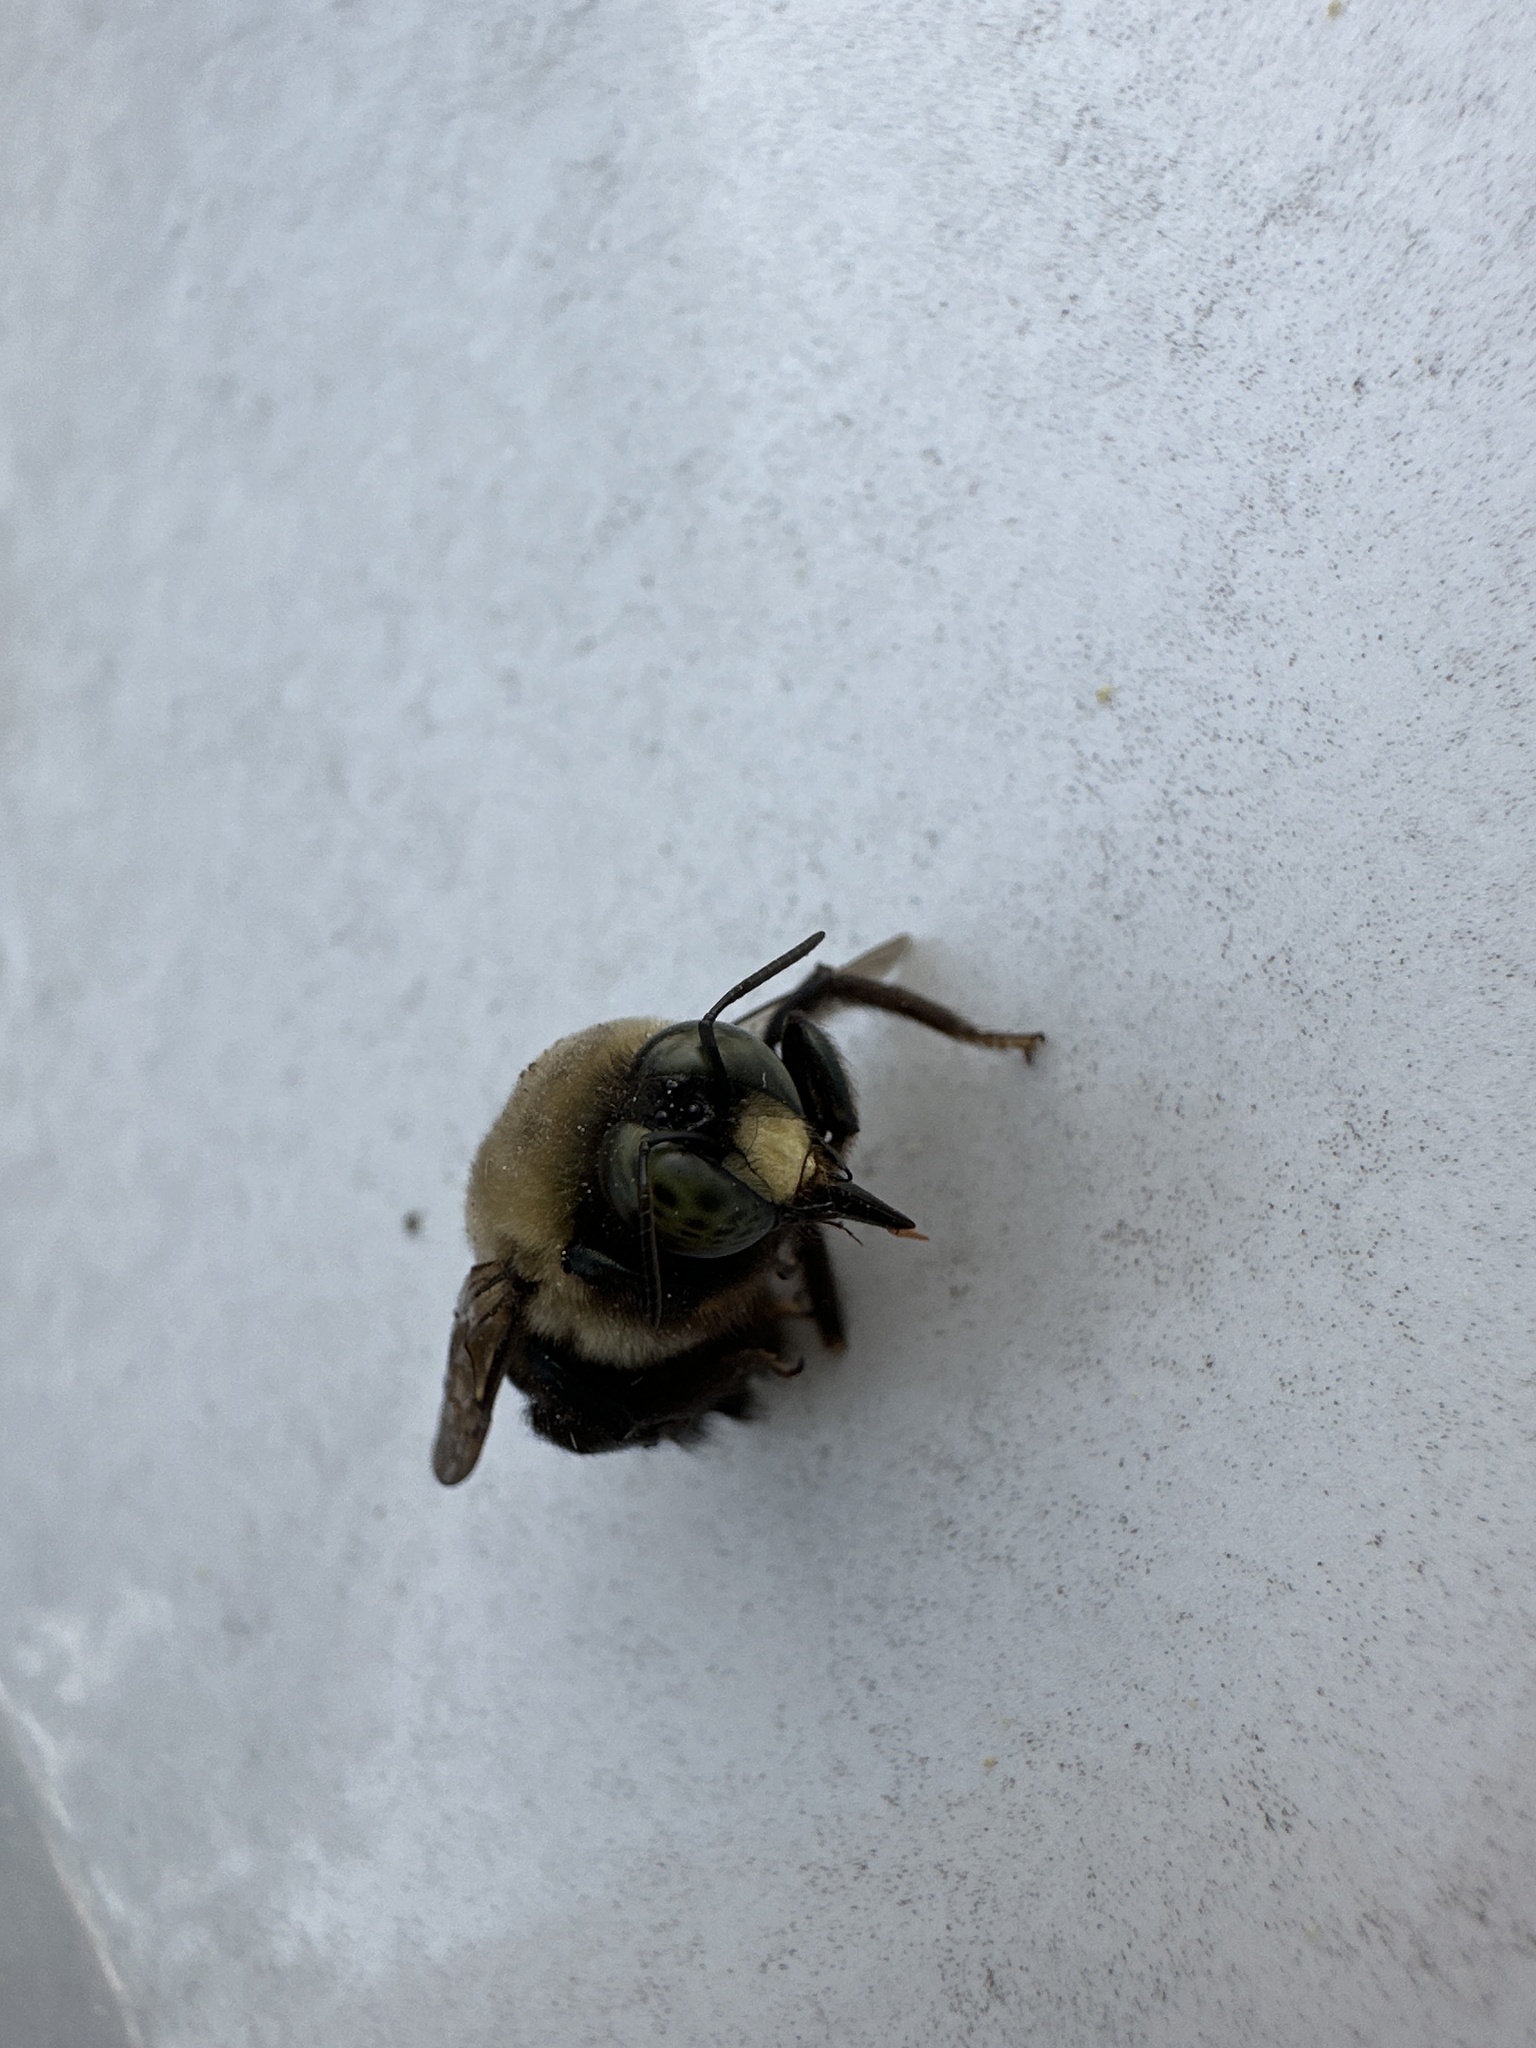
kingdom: Animalia
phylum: Arthropoda
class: Insecta
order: Hymenoptera
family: Apidae
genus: Xylocopa
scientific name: Xylocopa virginica
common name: Carpenter bee
